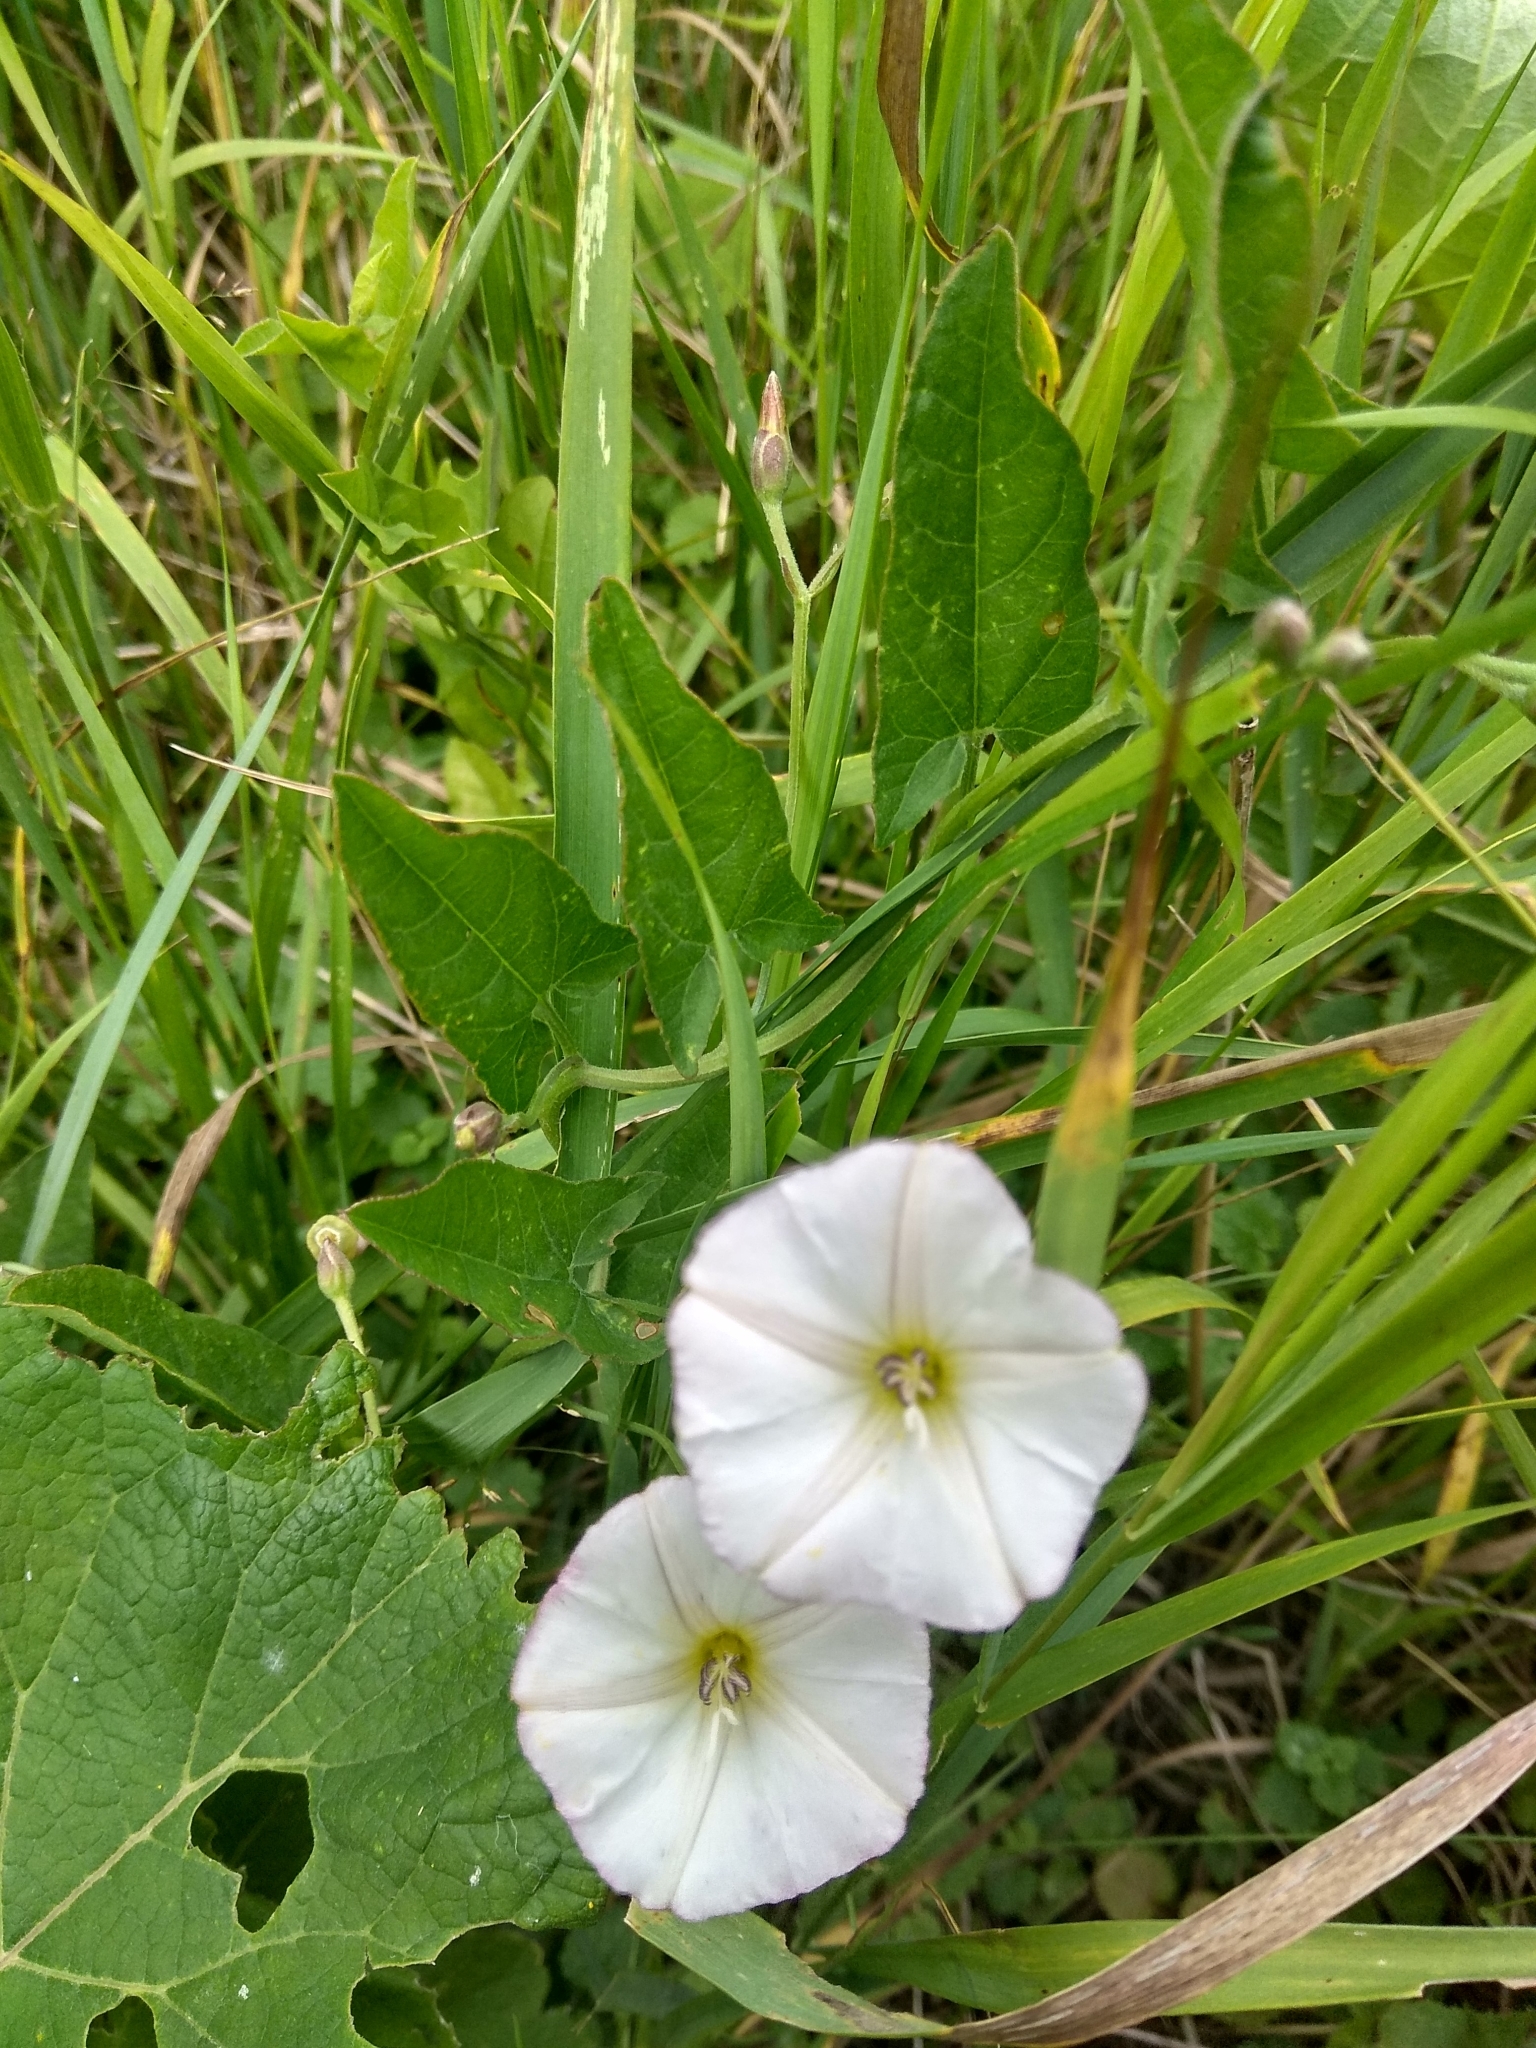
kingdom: Plantae
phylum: Tracheophyta
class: Magnoliopsida
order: Solanales
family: Convolvulaceae
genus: Convolvulus
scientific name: Convolvulus arvensis
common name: Field bindweed
